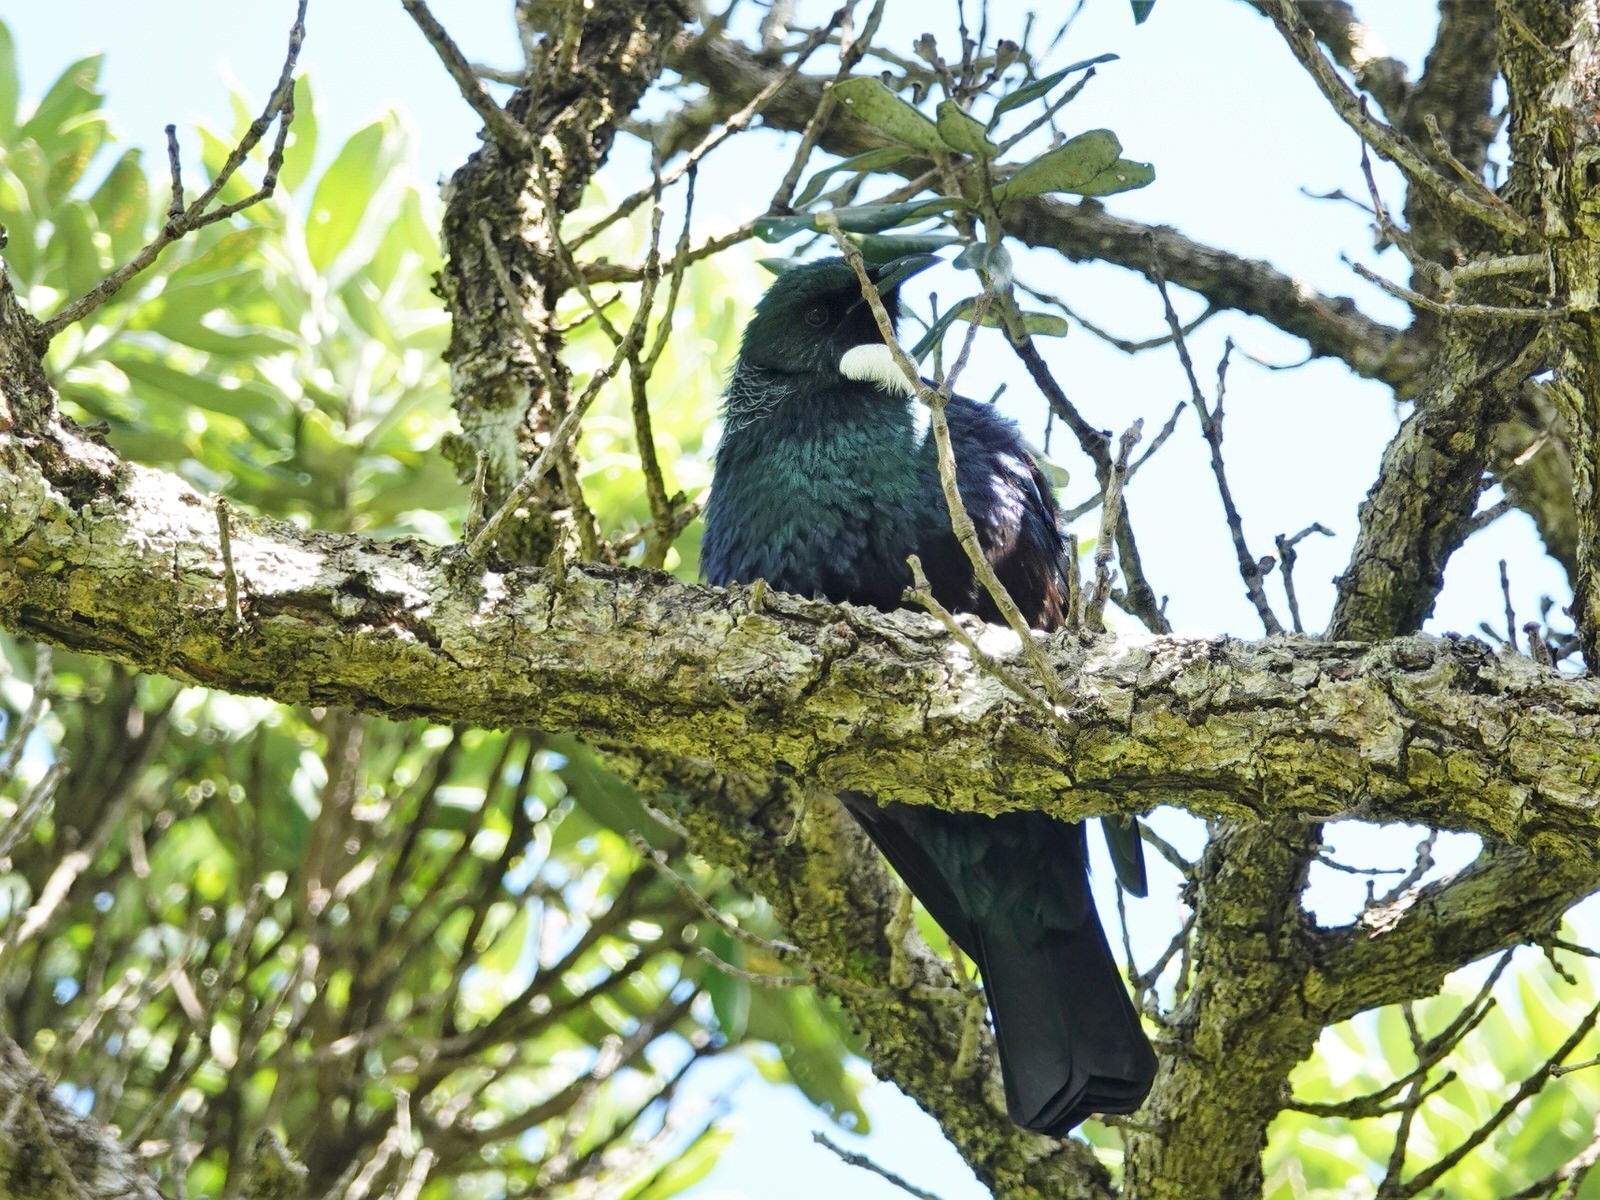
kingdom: Animalia
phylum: Chordata
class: Aves
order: Passeriformes
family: Meliphagidae
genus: Prosthemadera
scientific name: Prosthemadera novaeseelandiae
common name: Tui
